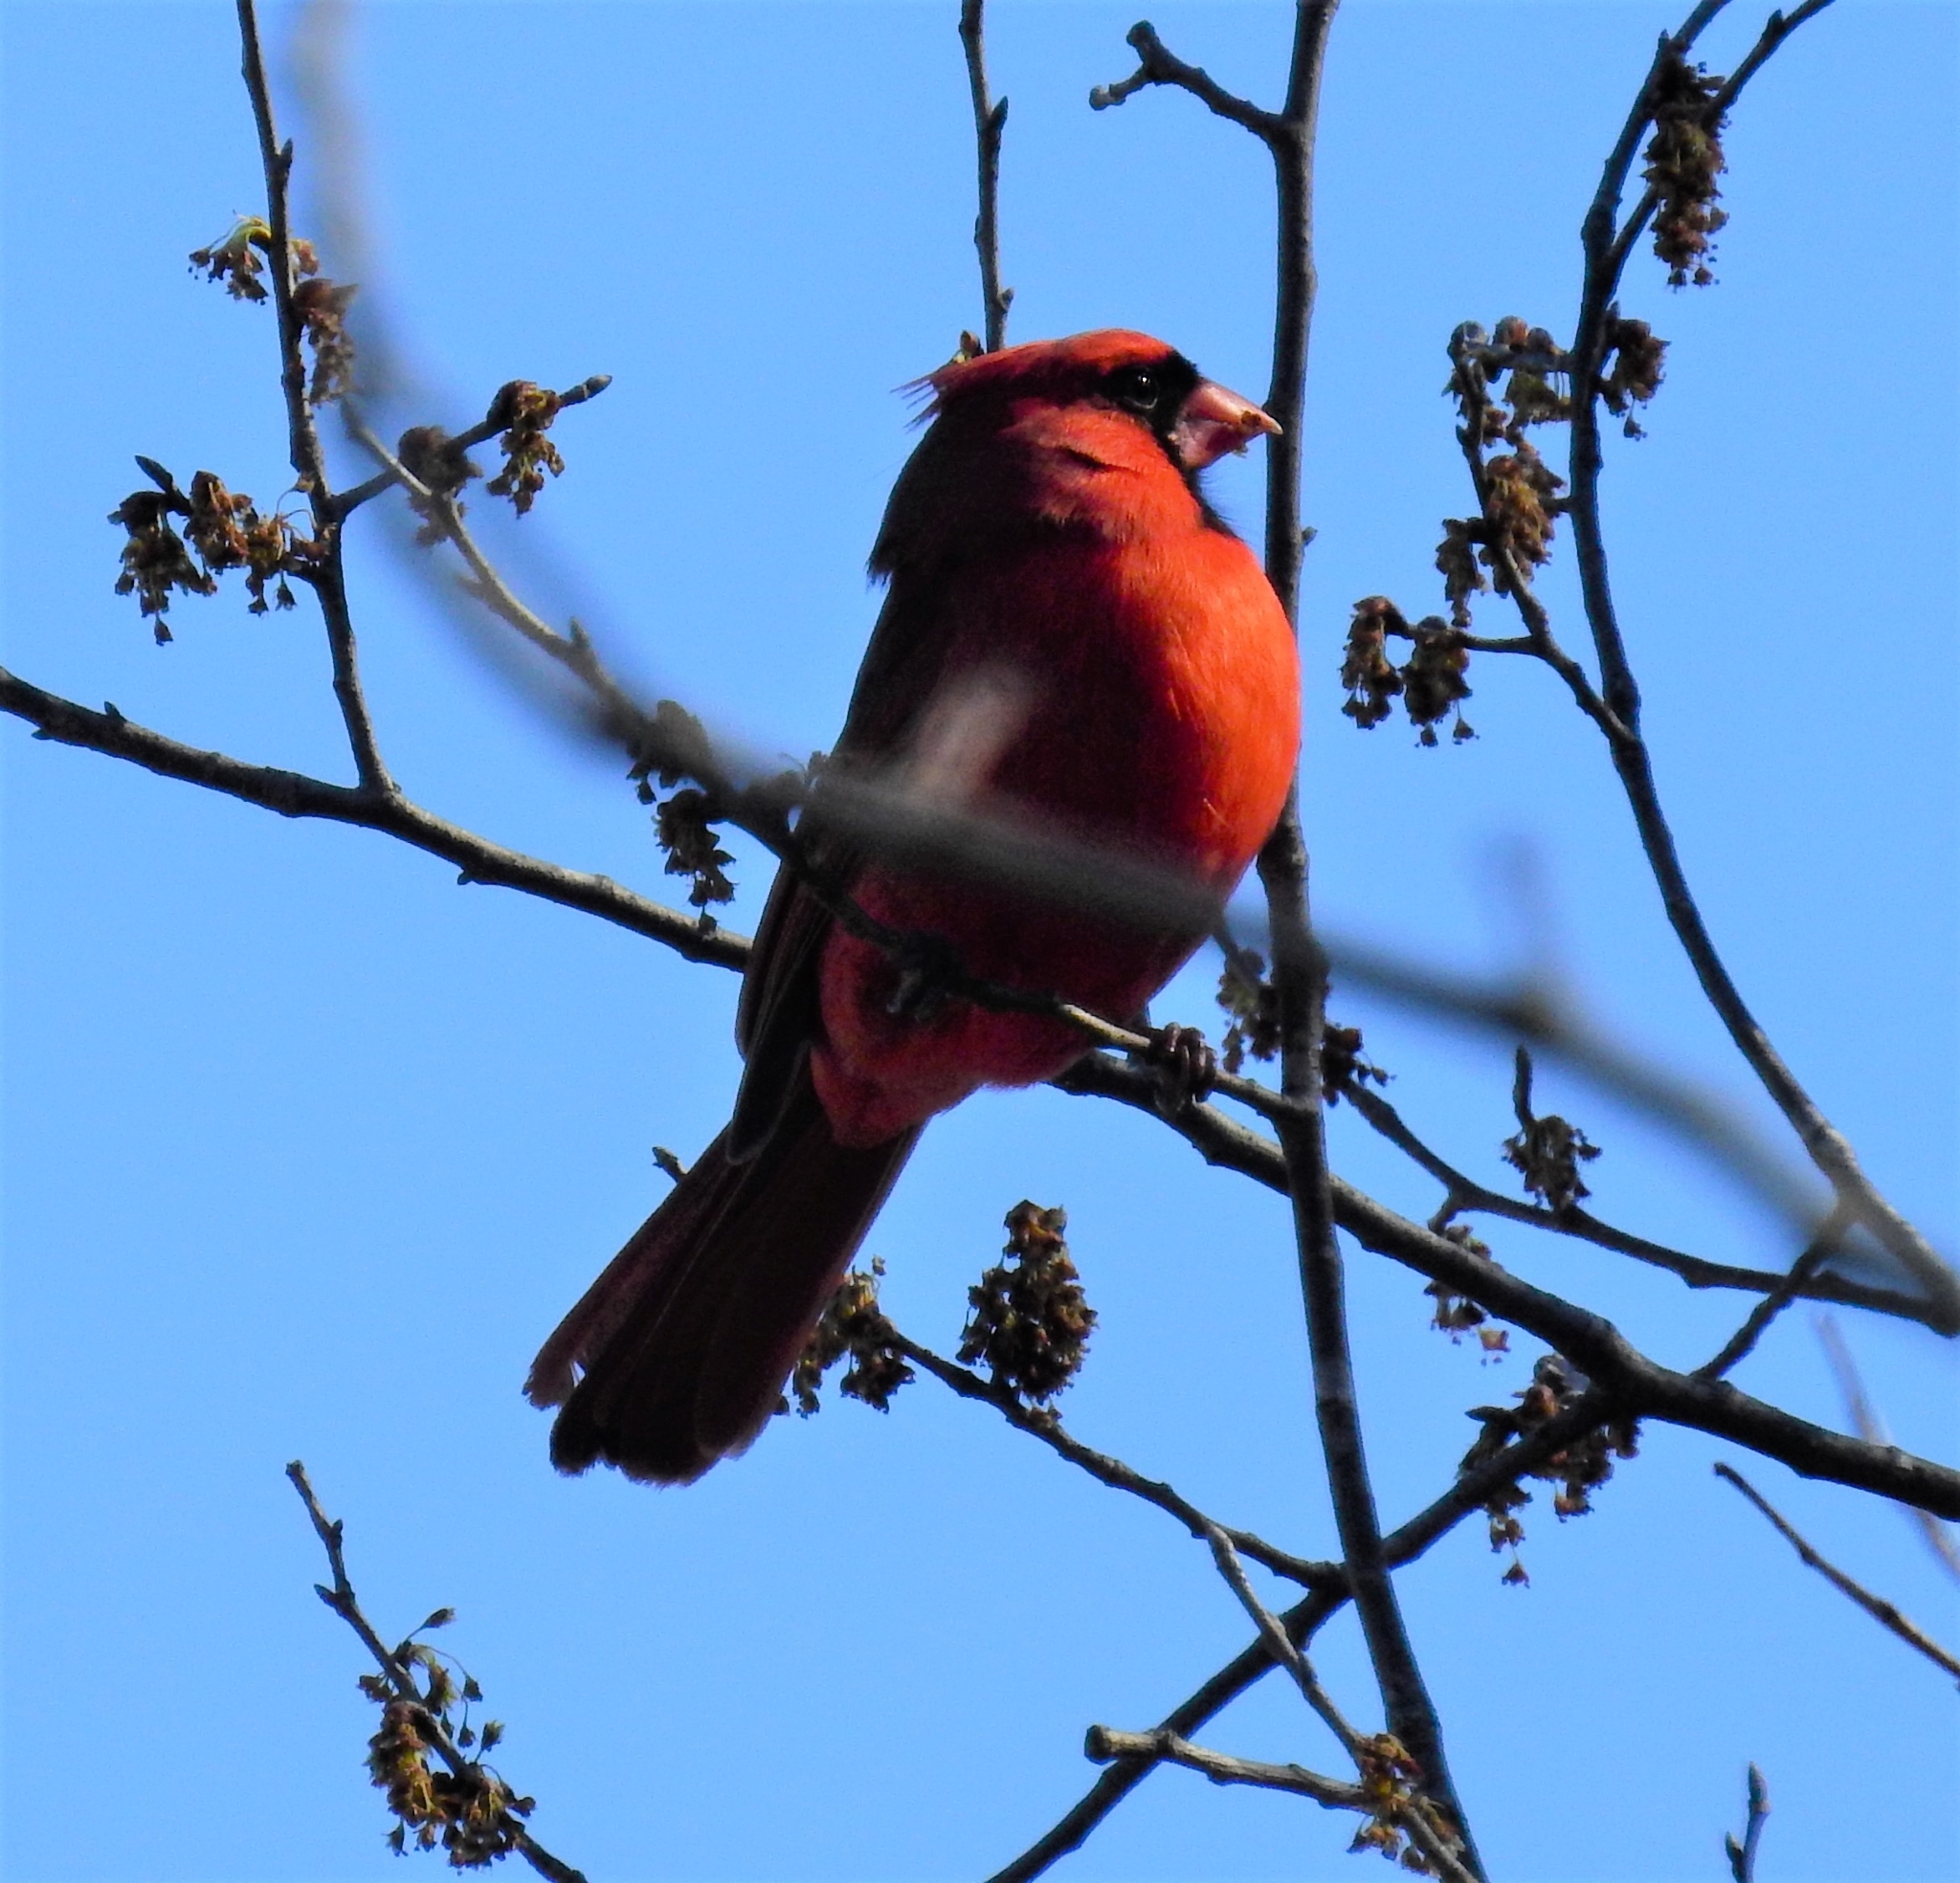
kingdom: Animalia
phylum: Chordata
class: Aves
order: Passeriformes
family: Cardinalidae
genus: Cardinalis
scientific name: Cardinalis cardinalis
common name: Northern cardinal
